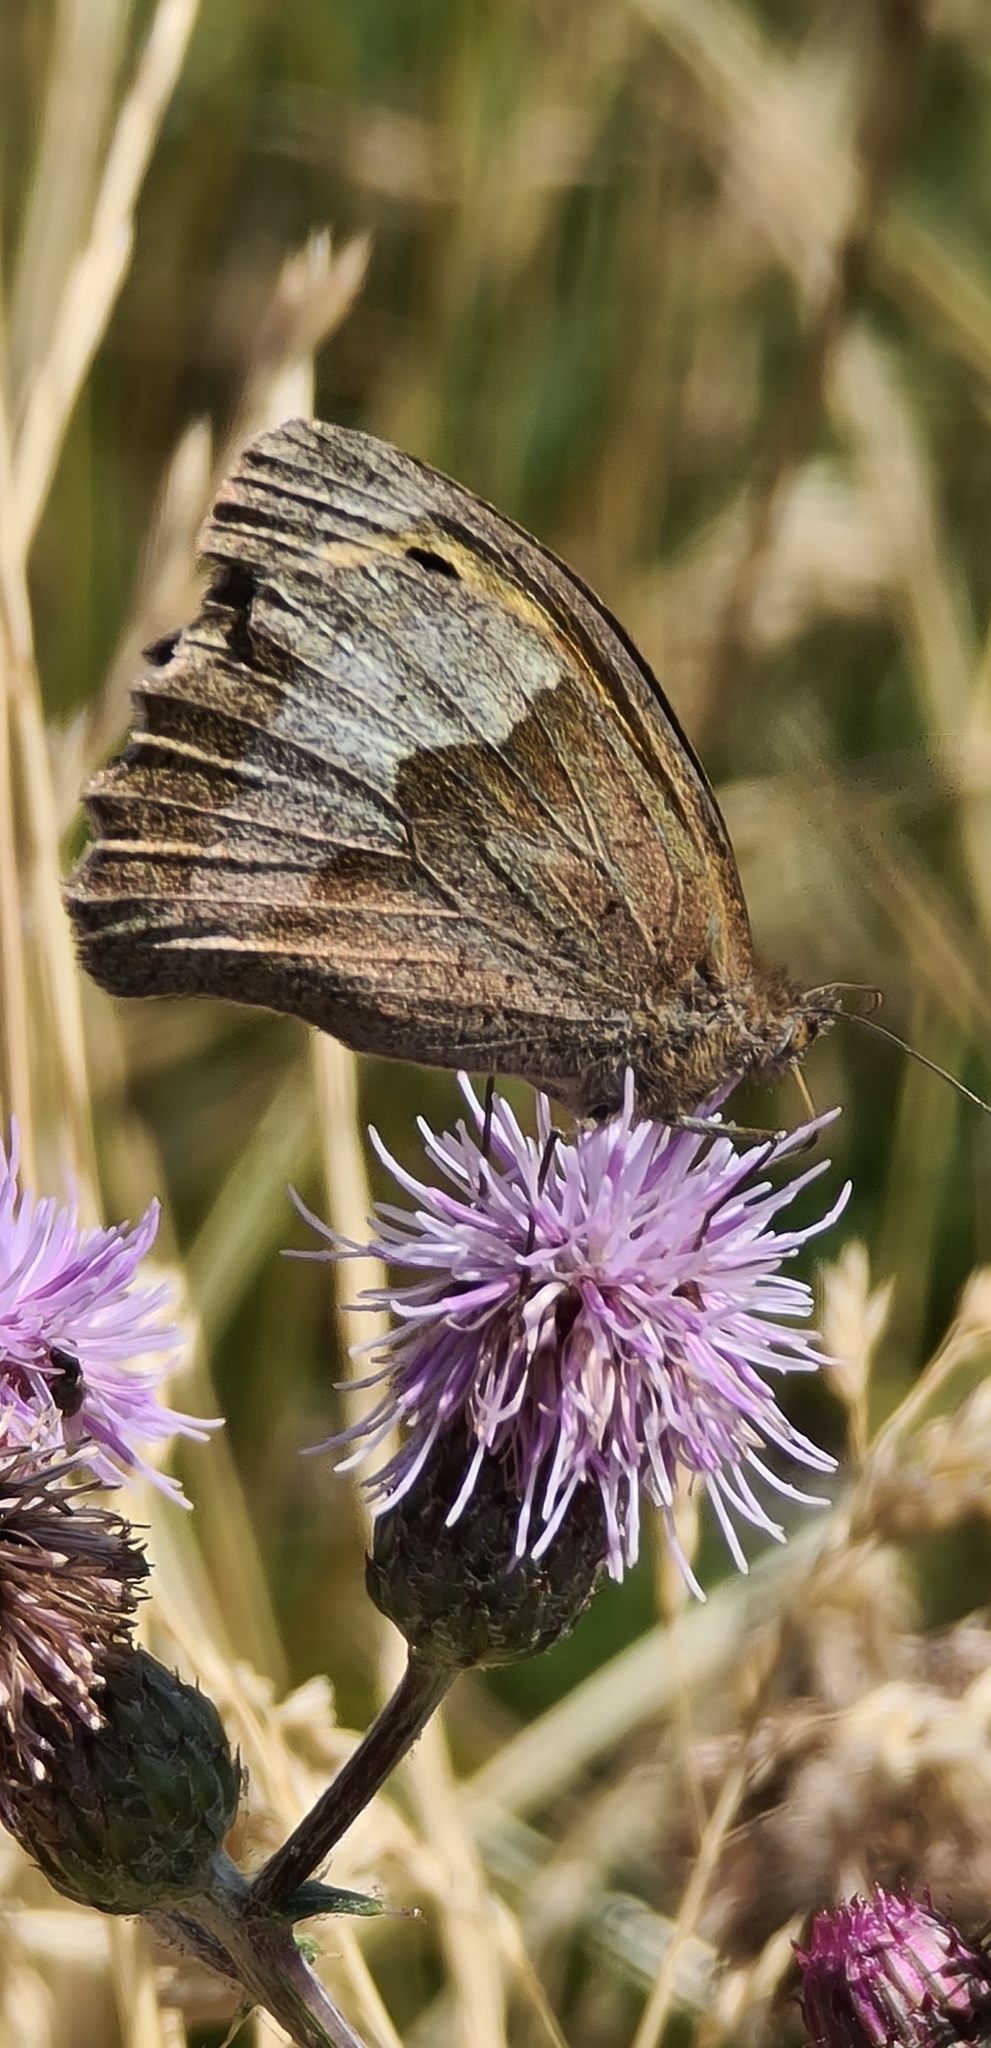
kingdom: Animalia
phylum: Arthropoda
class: Insecta
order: Lepidoptera
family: Nymphalidae
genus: Maniola
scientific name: Maniola jurtina
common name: Meadow brown
